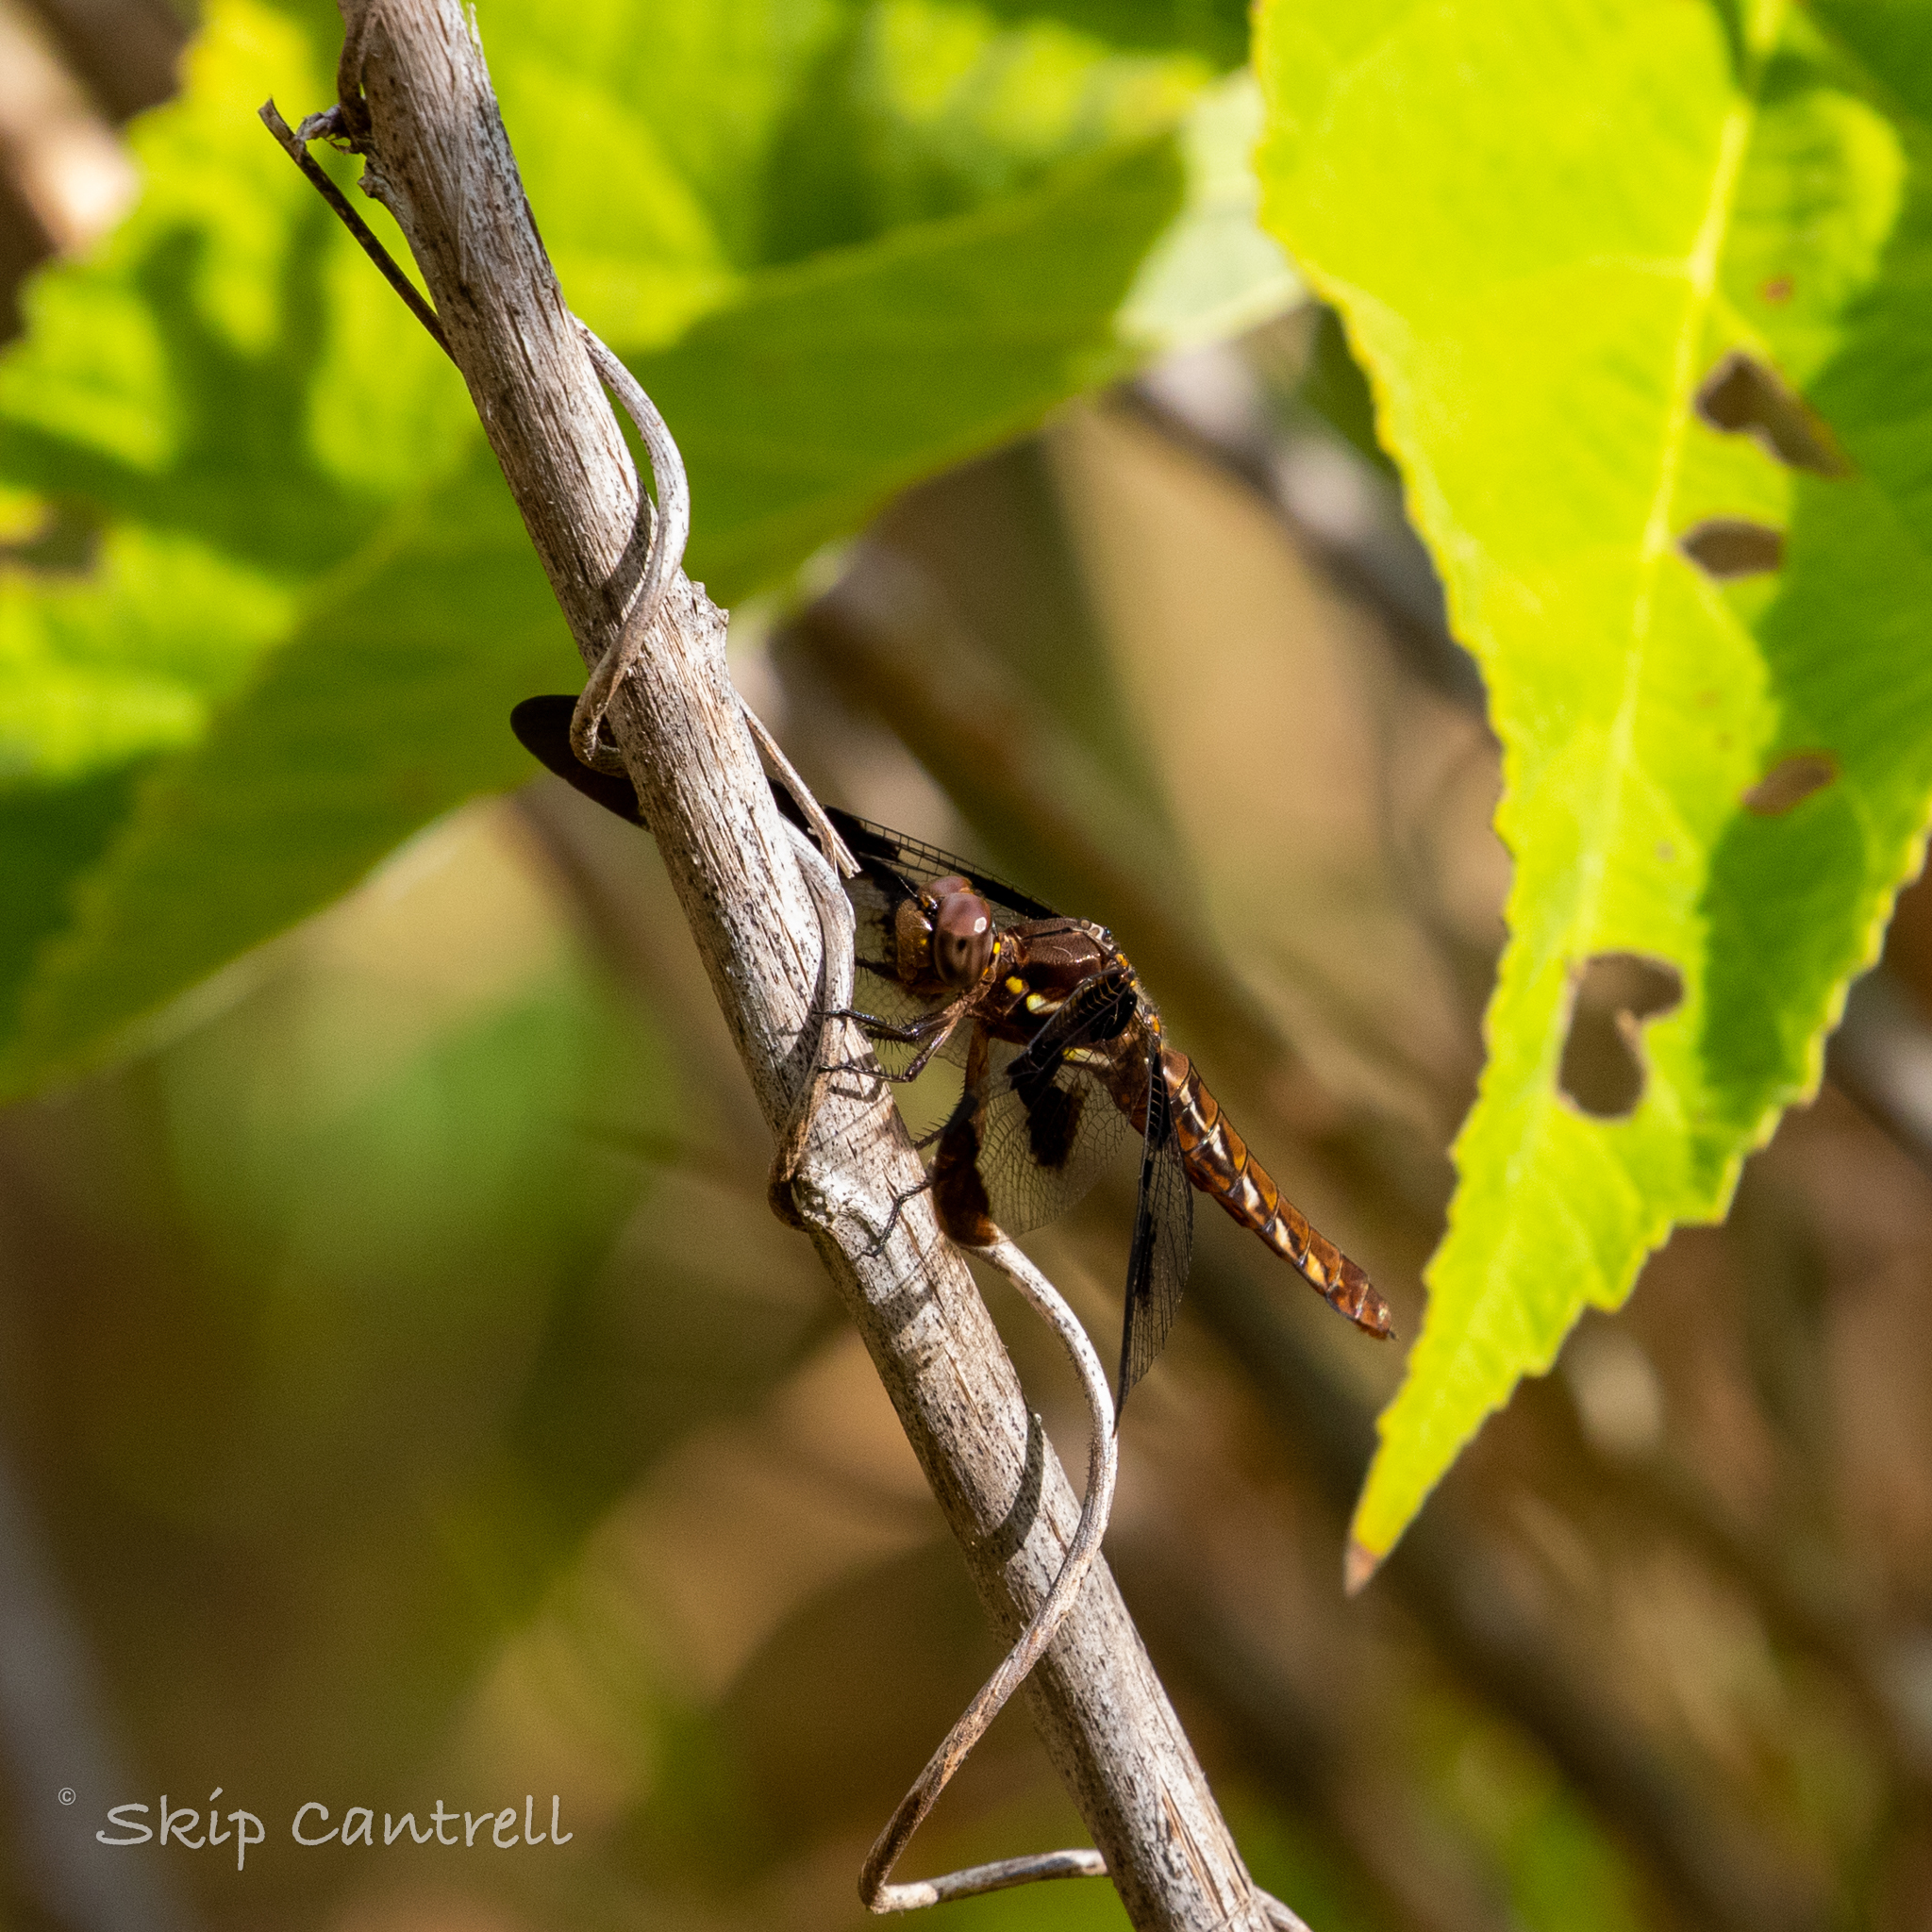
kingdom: Animalia
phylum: Arthropoda
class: Insecta
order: Odonata
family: Libellulidae
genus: Plathemis
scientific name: Plathemis lydia
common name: Common whitetail
